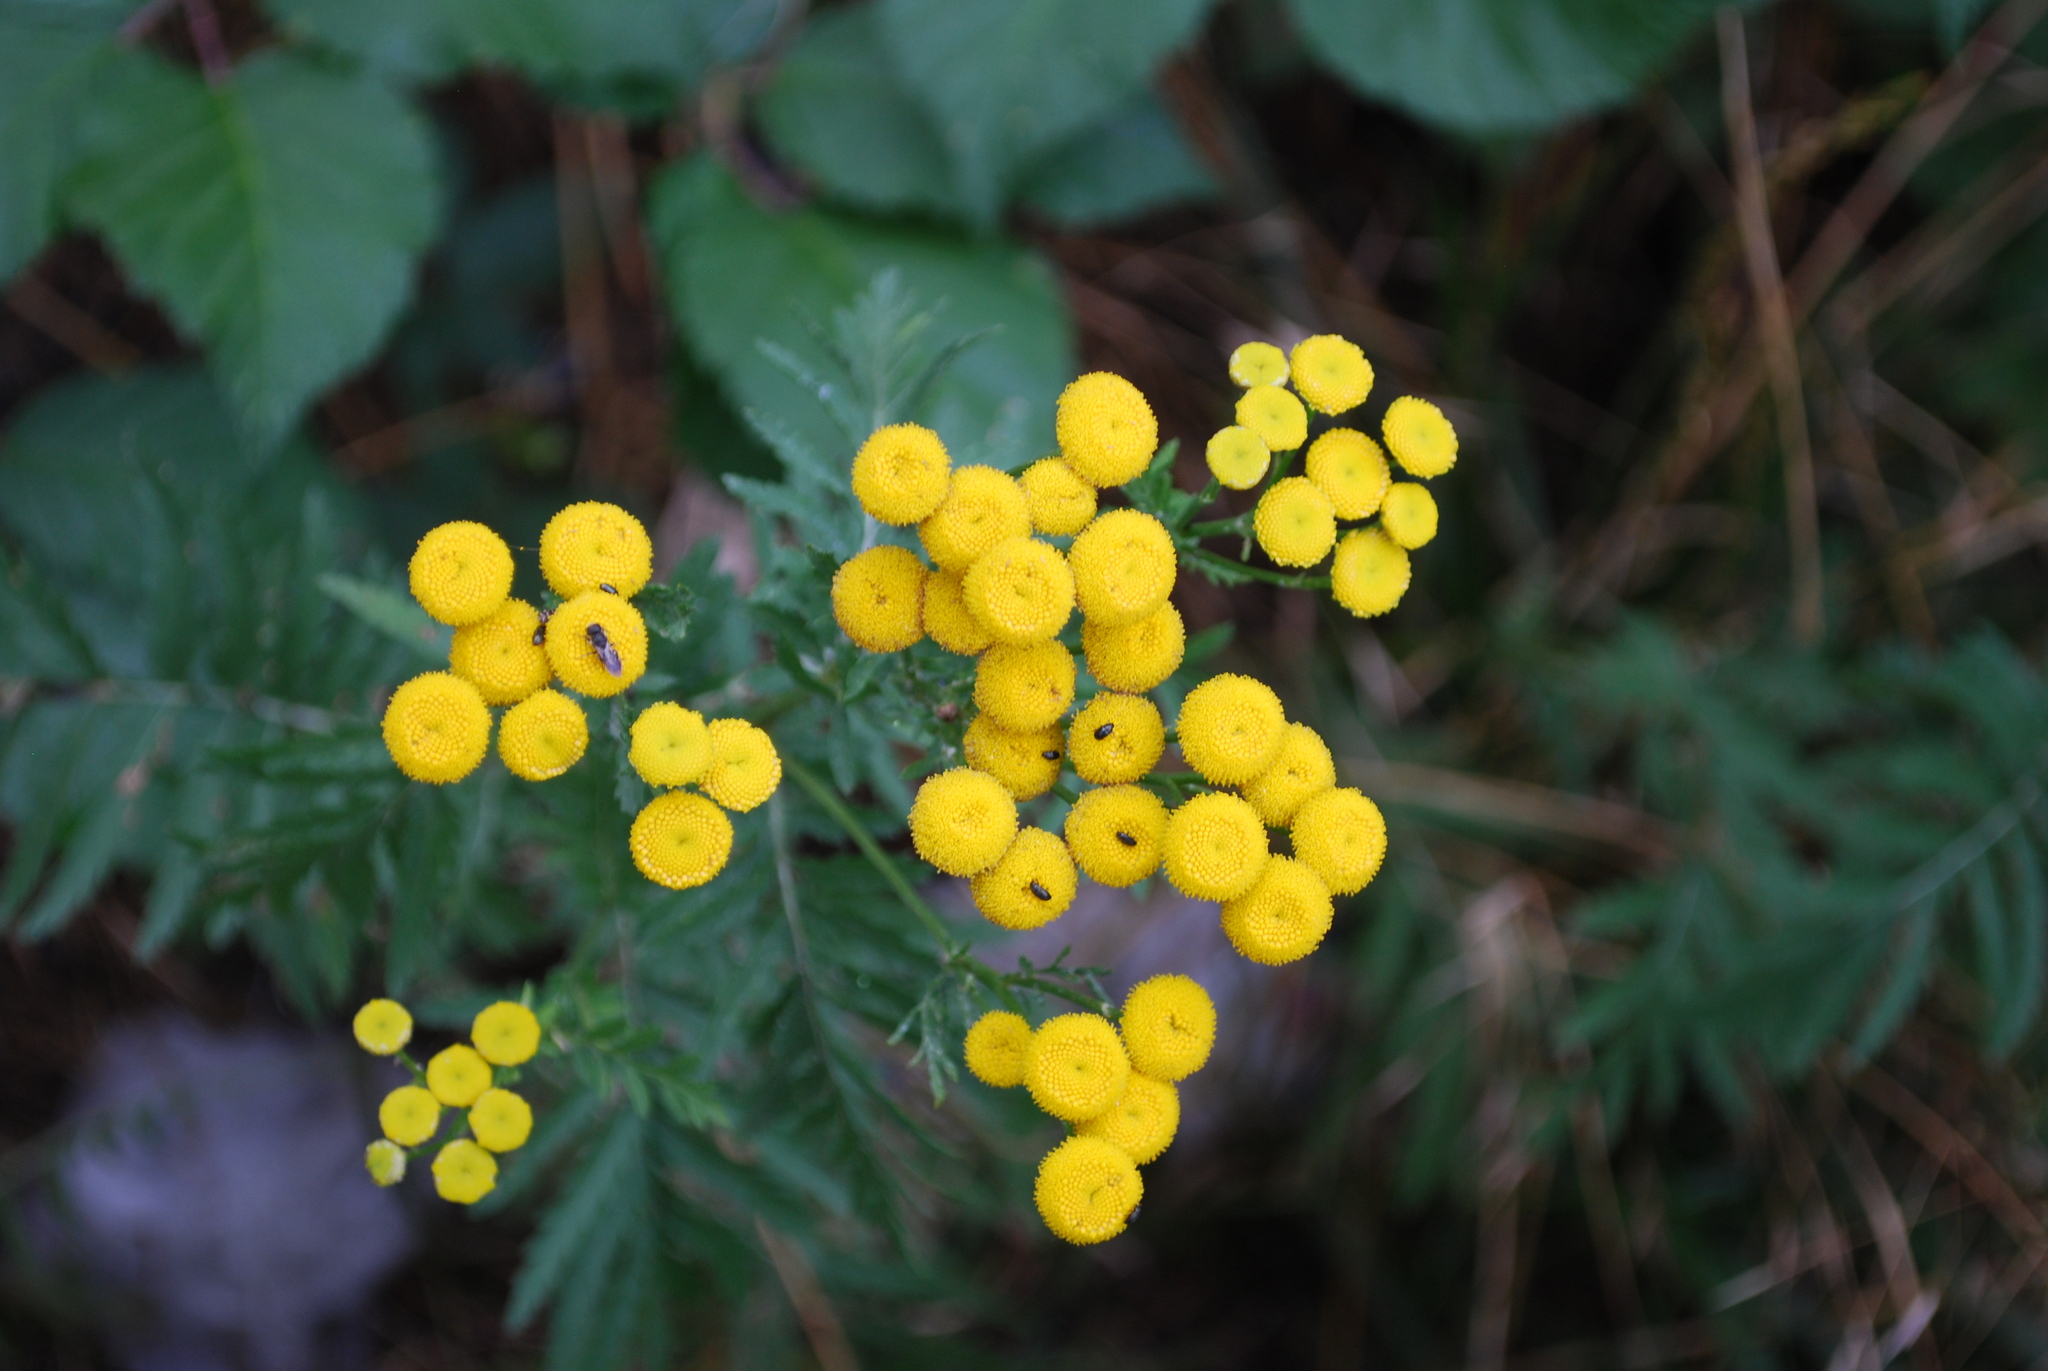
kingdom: Plantae
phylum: Tracheophyta
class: Magnoliopsida
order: Asterales
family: Asteraceae
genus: Tanacetum
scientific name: Tanacetum vulgare
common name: Common tansy
